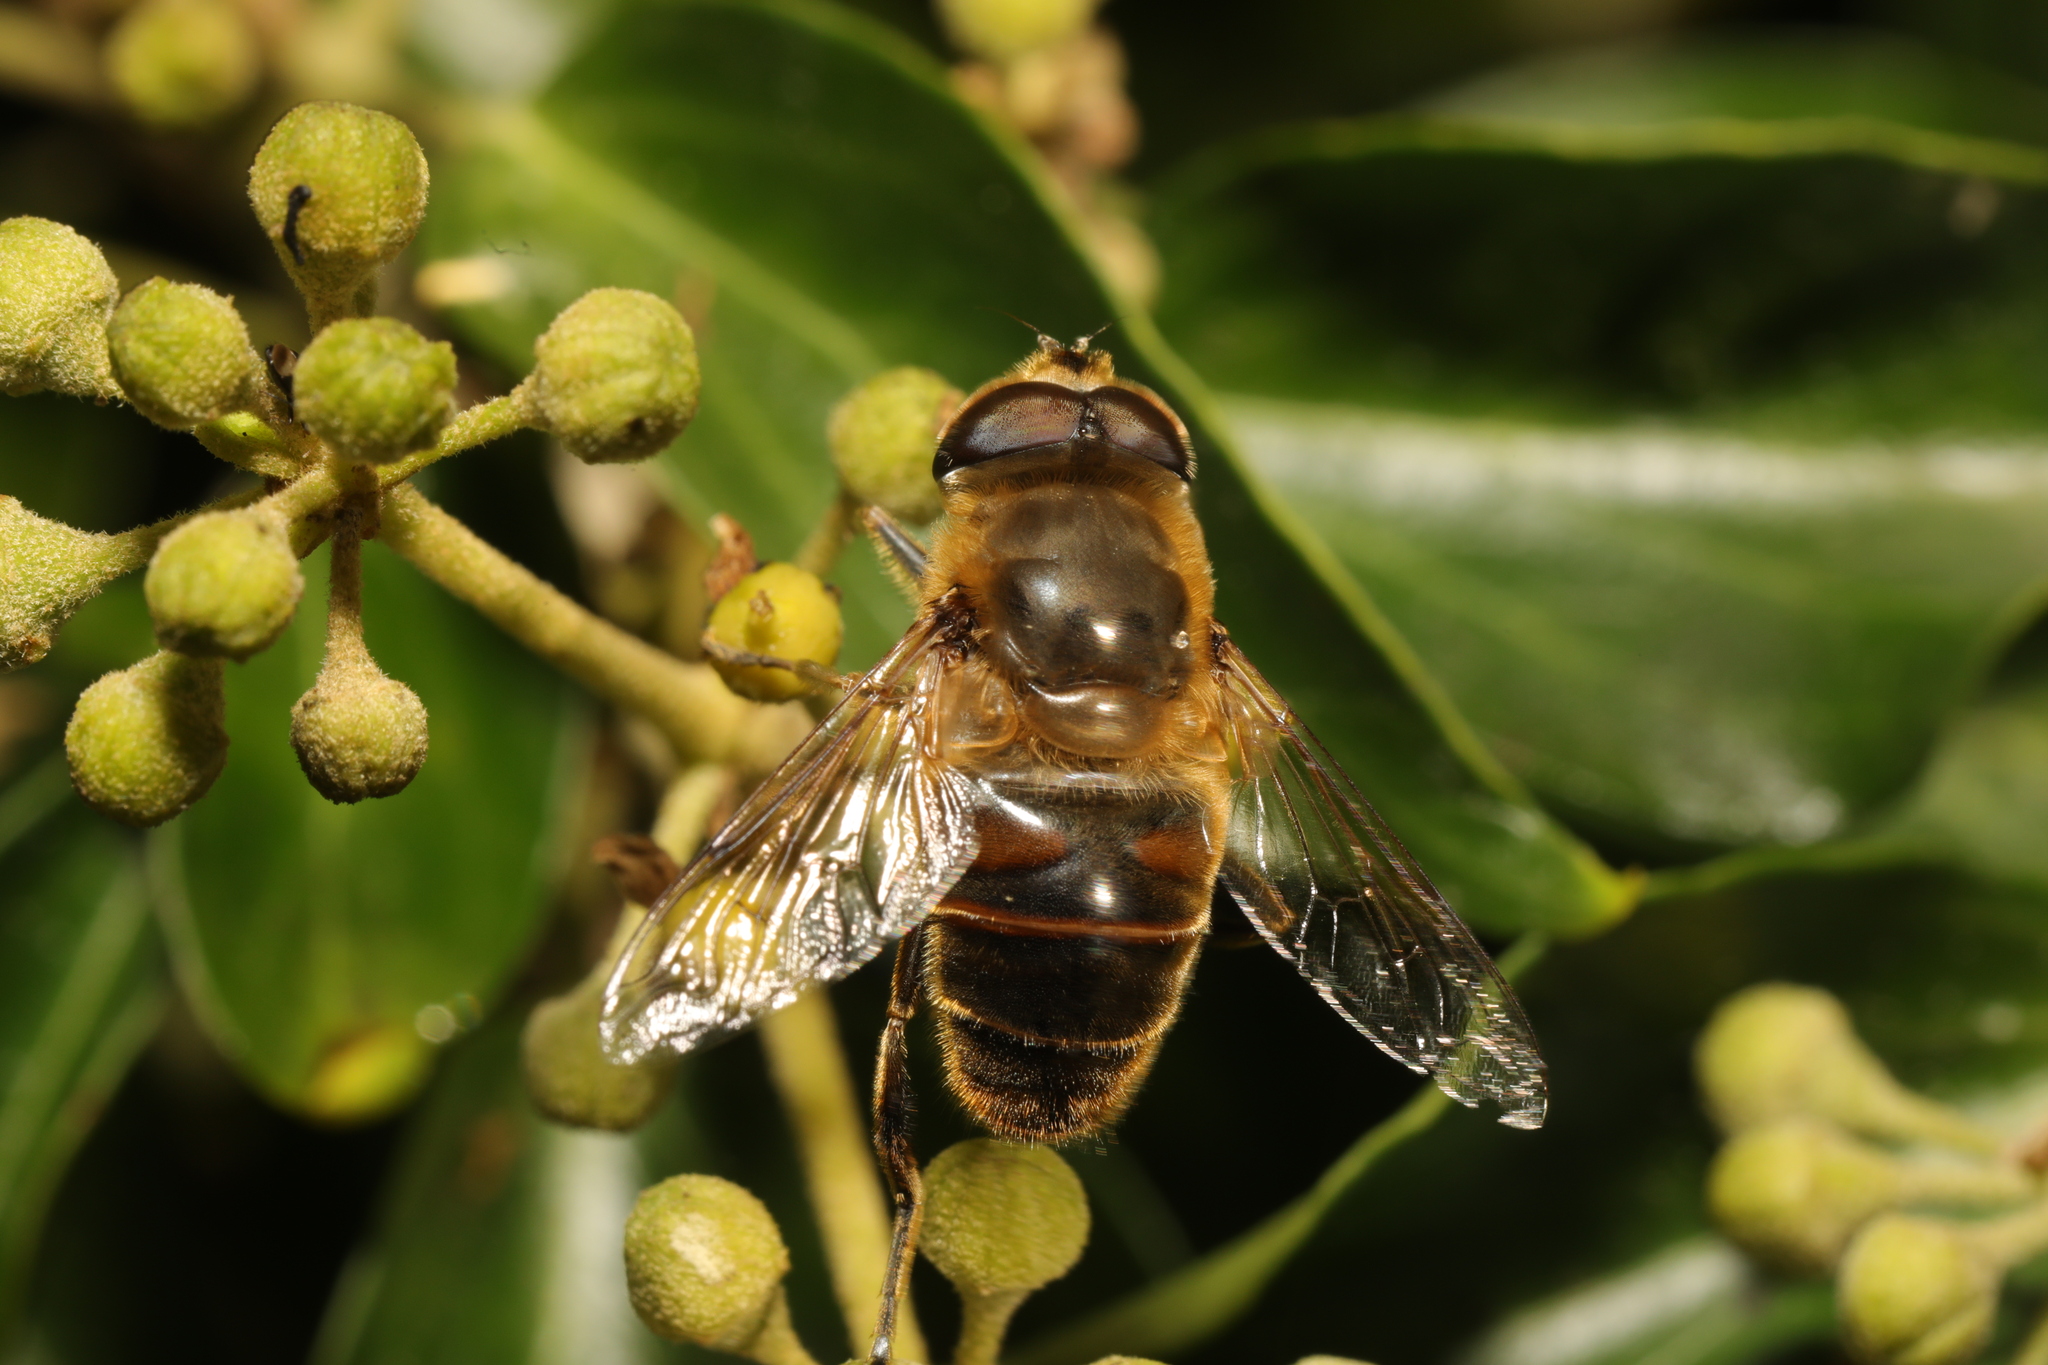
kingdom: Animalia
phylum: Arthropoda
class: Insecta
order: Diptera
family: Syrphidae
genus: Eristalis
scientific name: Eristalis tenax
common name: Drone fly
